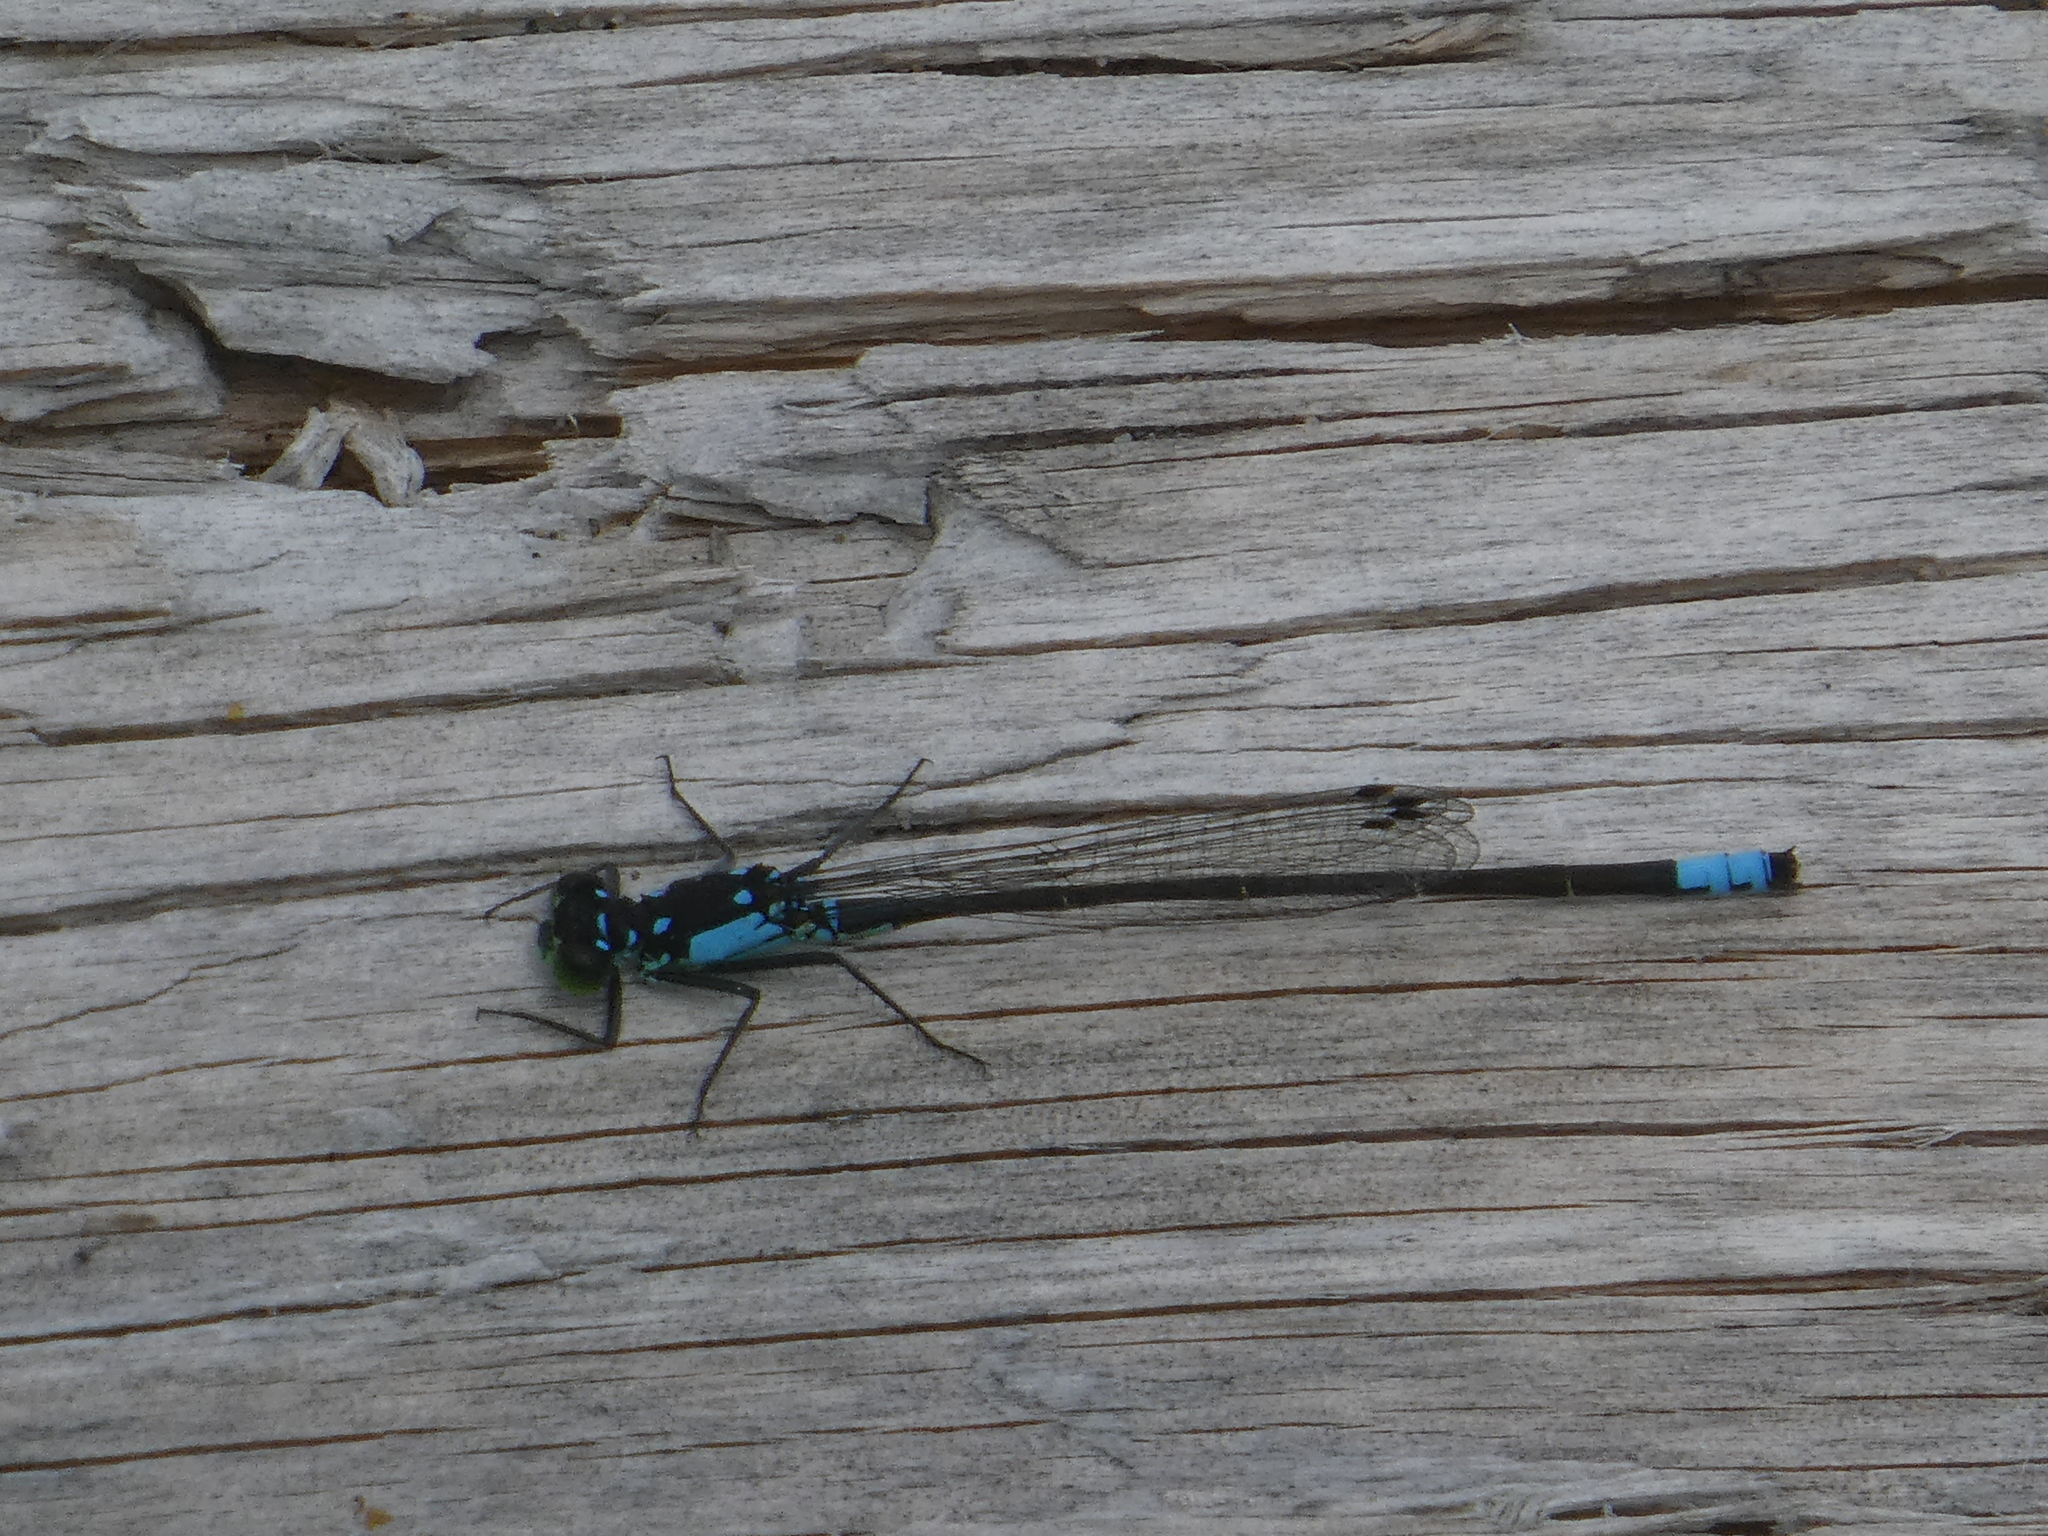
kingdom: Animalia
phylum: Arthropoda
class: Insecta
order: Odonata
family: Coenagrionidae
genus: Ischnura
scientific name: Ischnura cervula
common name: Pacific forktail
